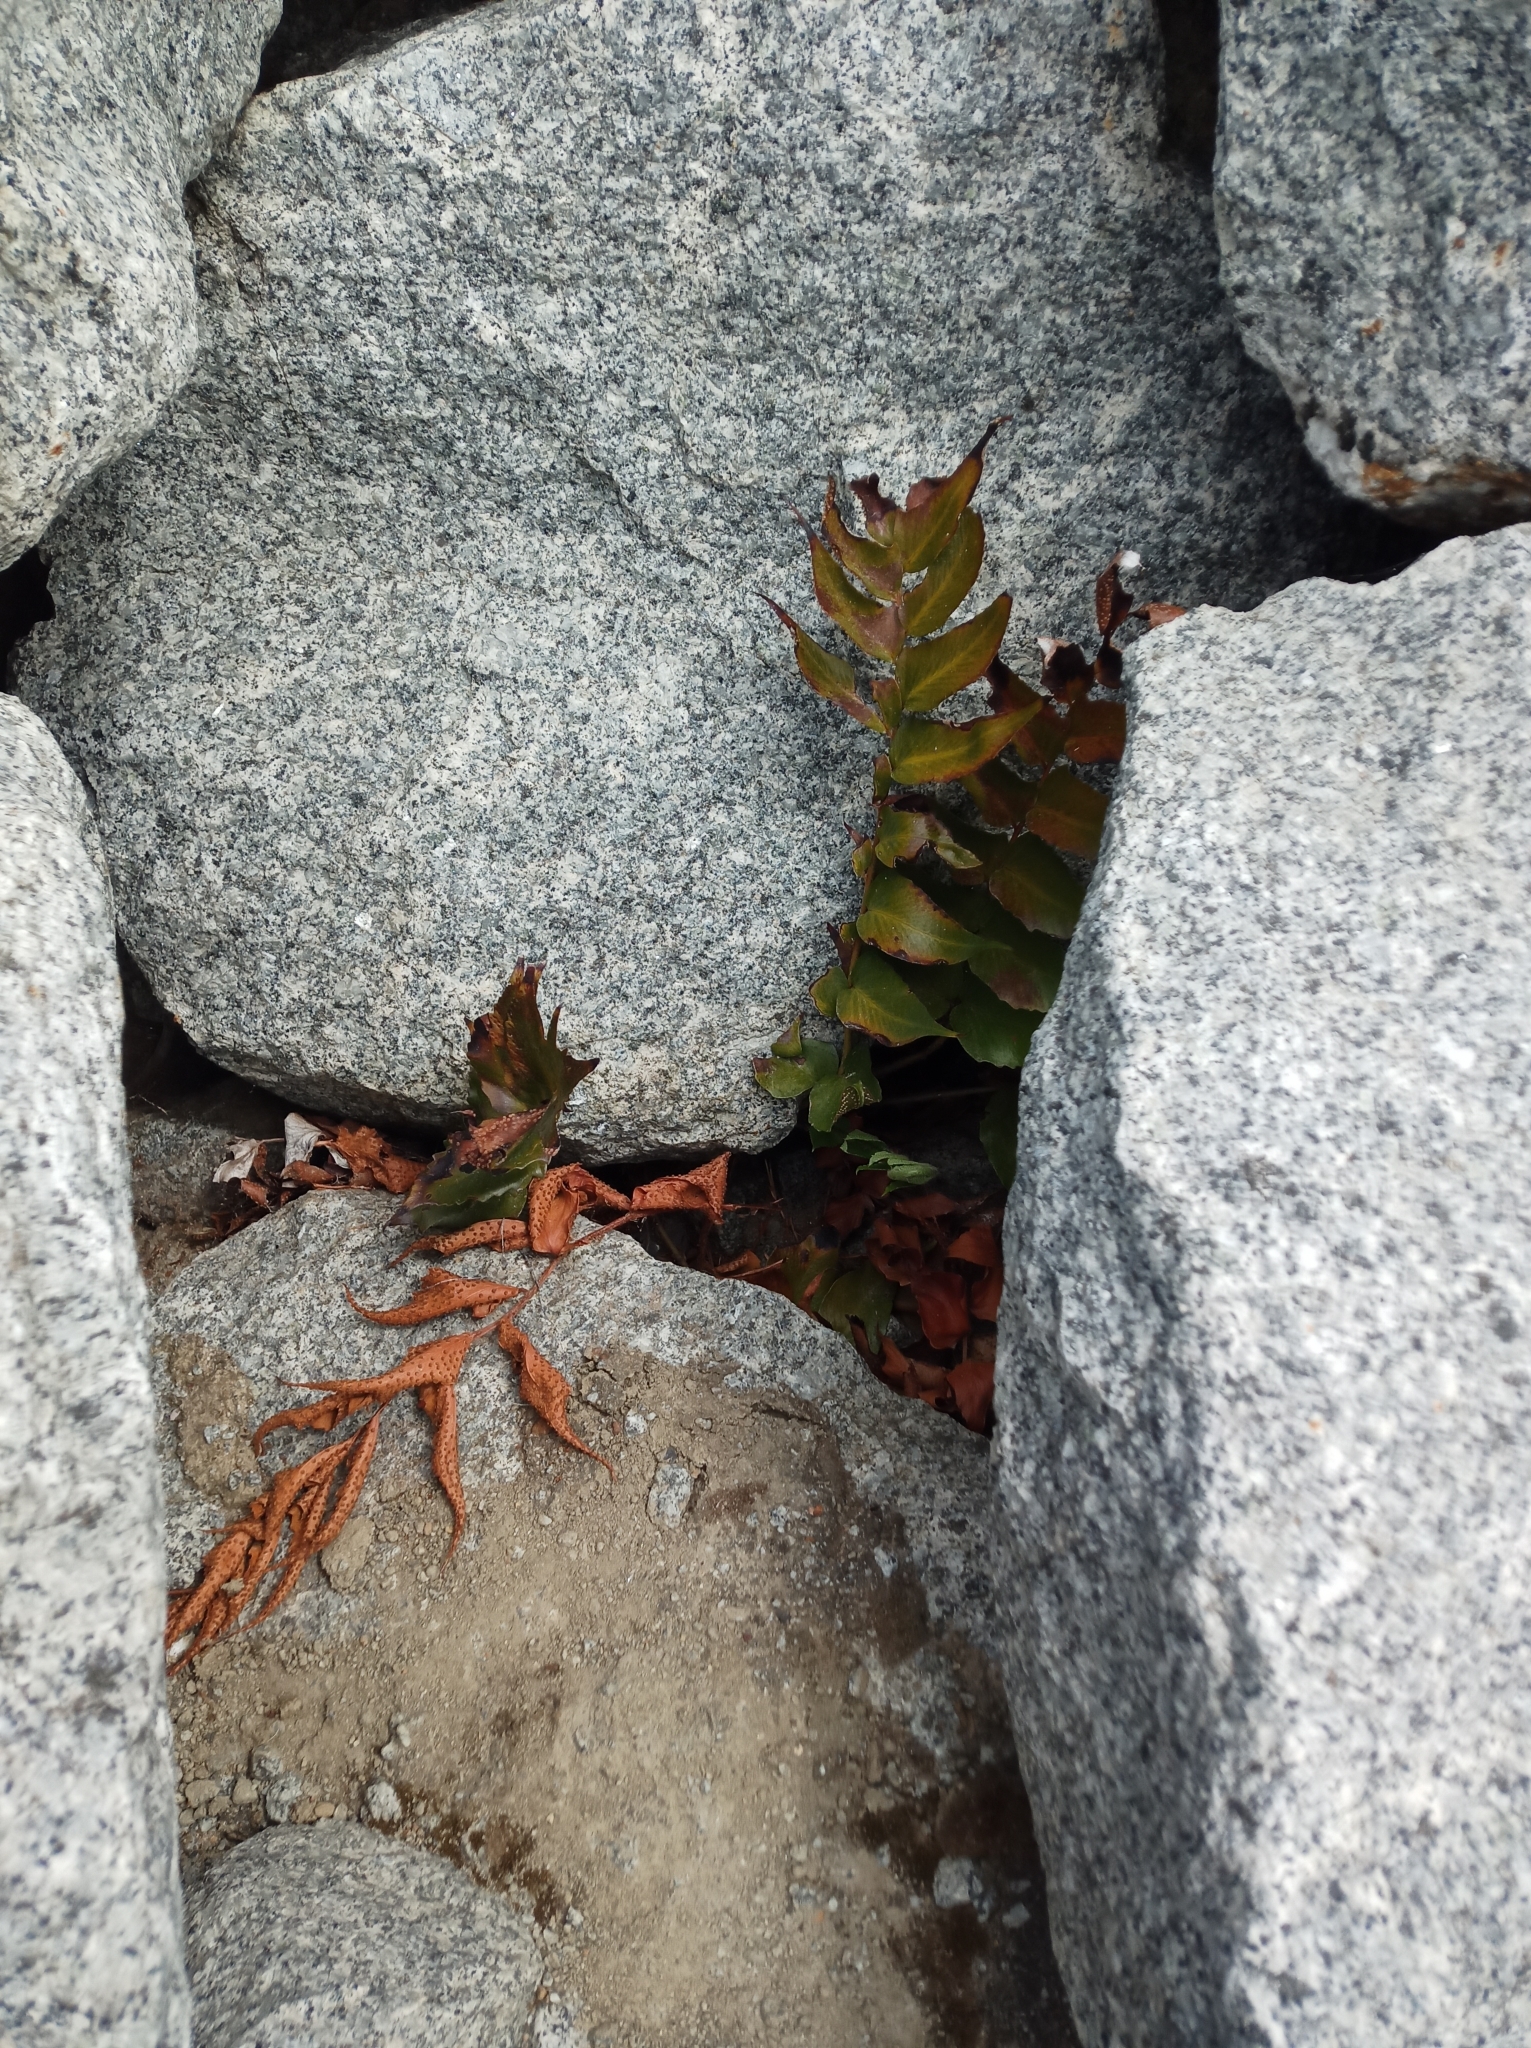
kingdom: Plantae
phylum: Tracheophyta
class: Polypodiopsida
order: Polypodiales
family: Dryopteridaceae
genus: Cyrtomium
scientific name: Cyrtomium falcatum
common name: House holly-fern
